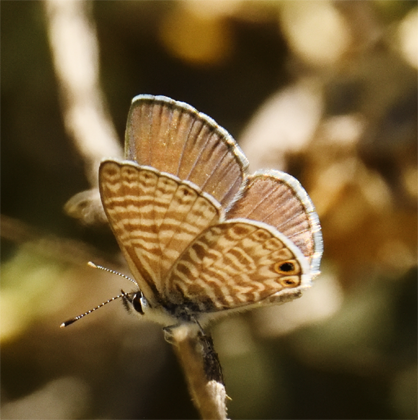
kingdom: Animalia
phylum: Arthropoda
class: Insecta
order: Lepidoptera
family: Lycaenidae
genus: Leptotes
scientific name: Leptotes marina
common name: Marine blue
